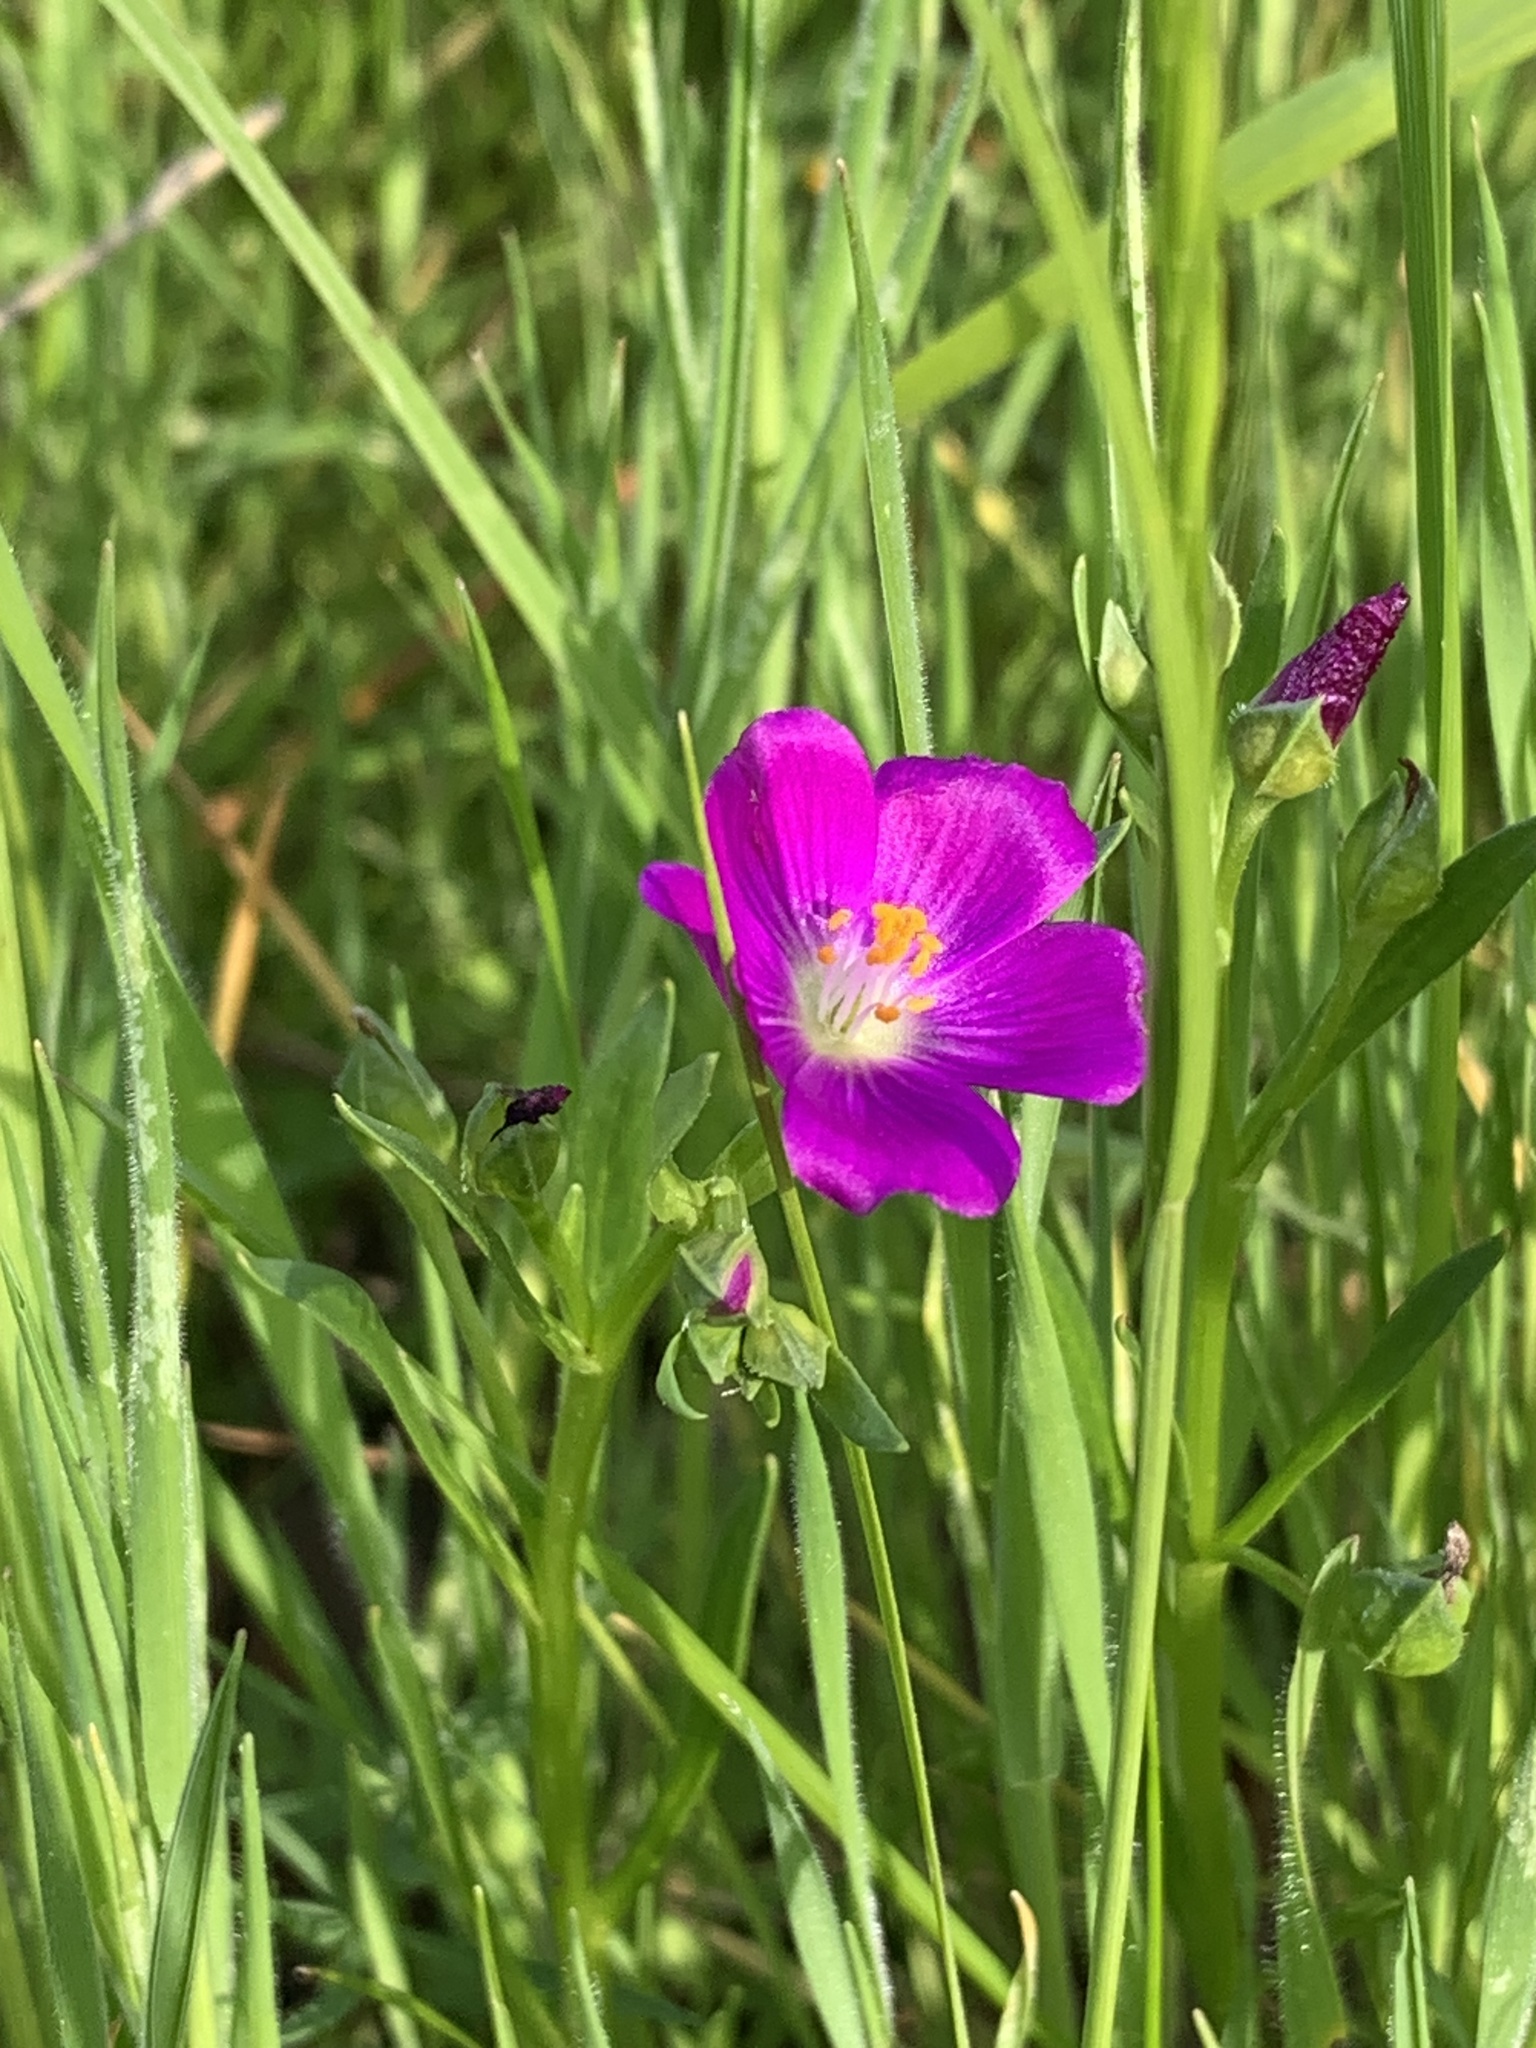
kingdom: Plantae
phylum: Tracheophyta
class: Magnoliopsida
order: Caryophyllales
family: Montiaceae
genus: Calandrinia
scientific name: Calandrinia menziesii
